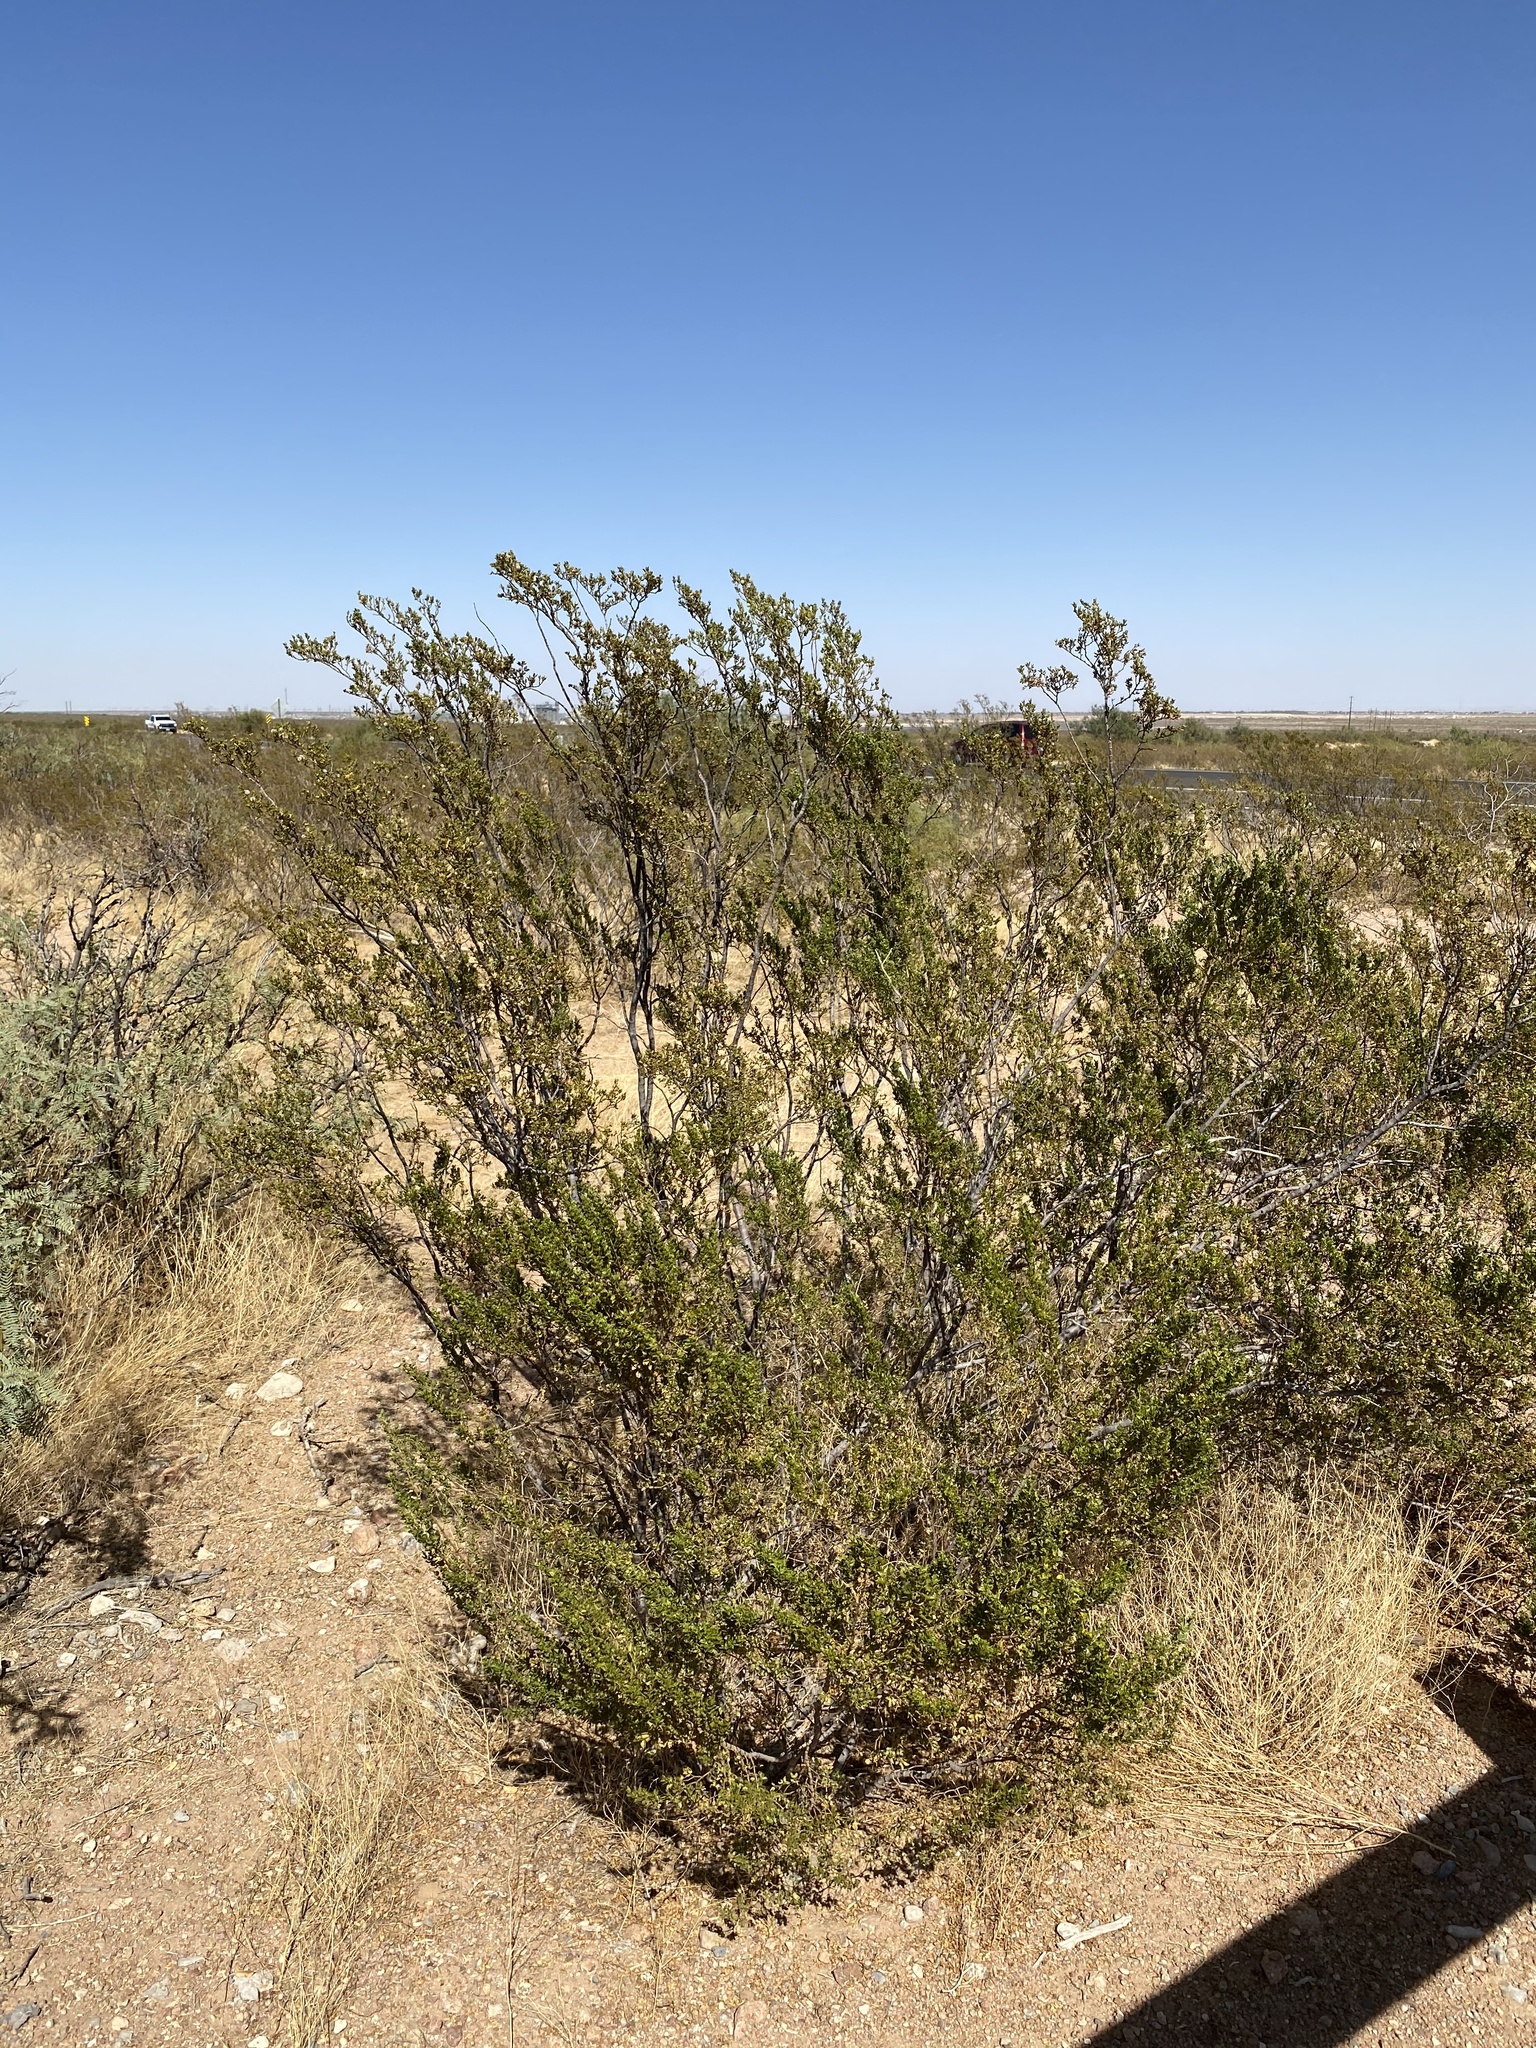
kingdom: Plantae
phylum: Tracheophyta
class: Magnoliopsida
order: Zygophyllales
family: Zygophyllaceae
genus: Larrea
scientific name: Larrea tridentata
